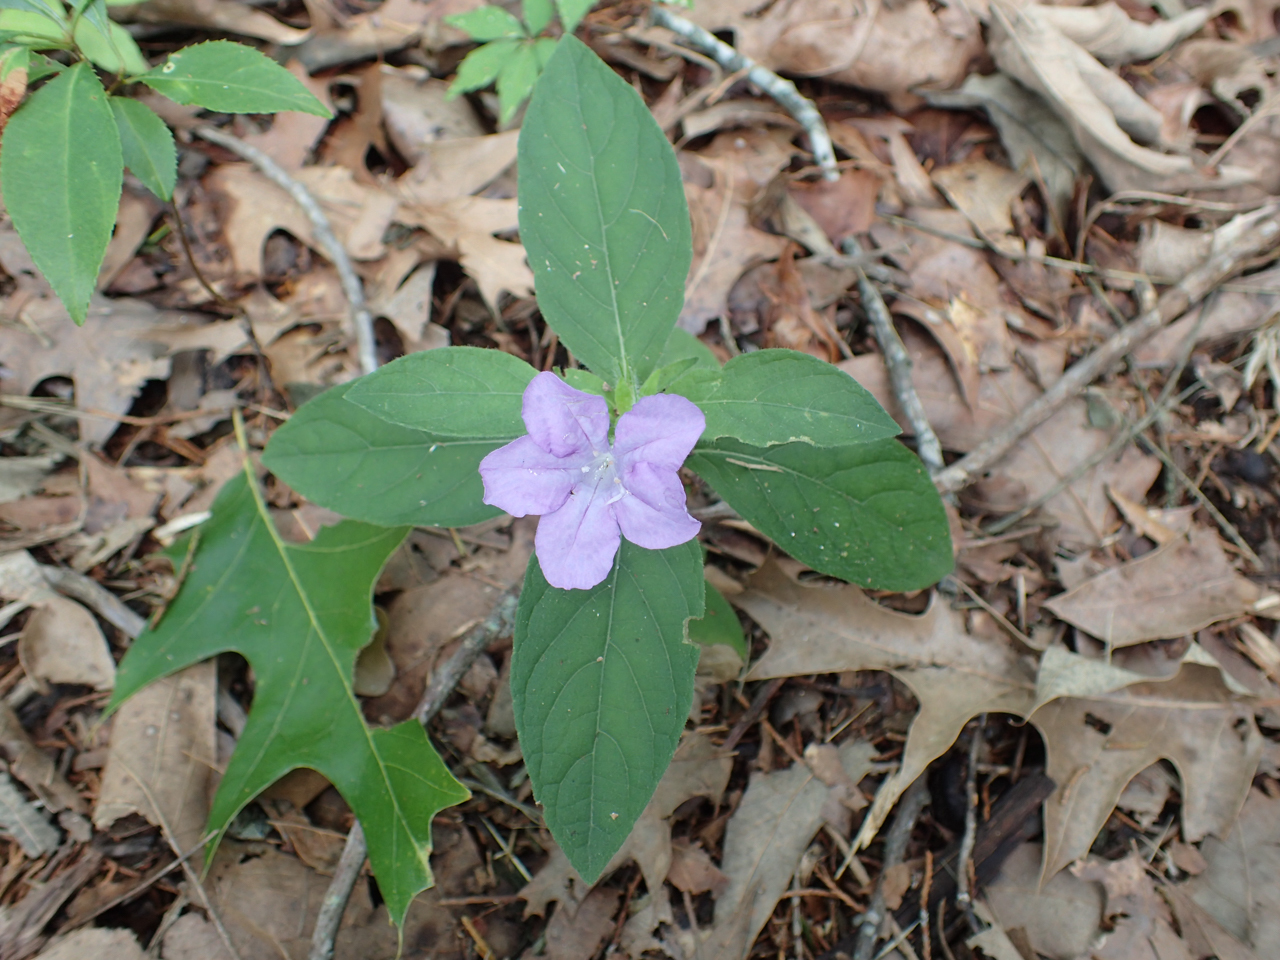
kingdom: Plantae
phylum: Tracheophyta
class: Magnoliopsida
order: Lamiales
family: Acanthaceae
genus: Ruellia
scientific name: Ruellia caroliniensis
